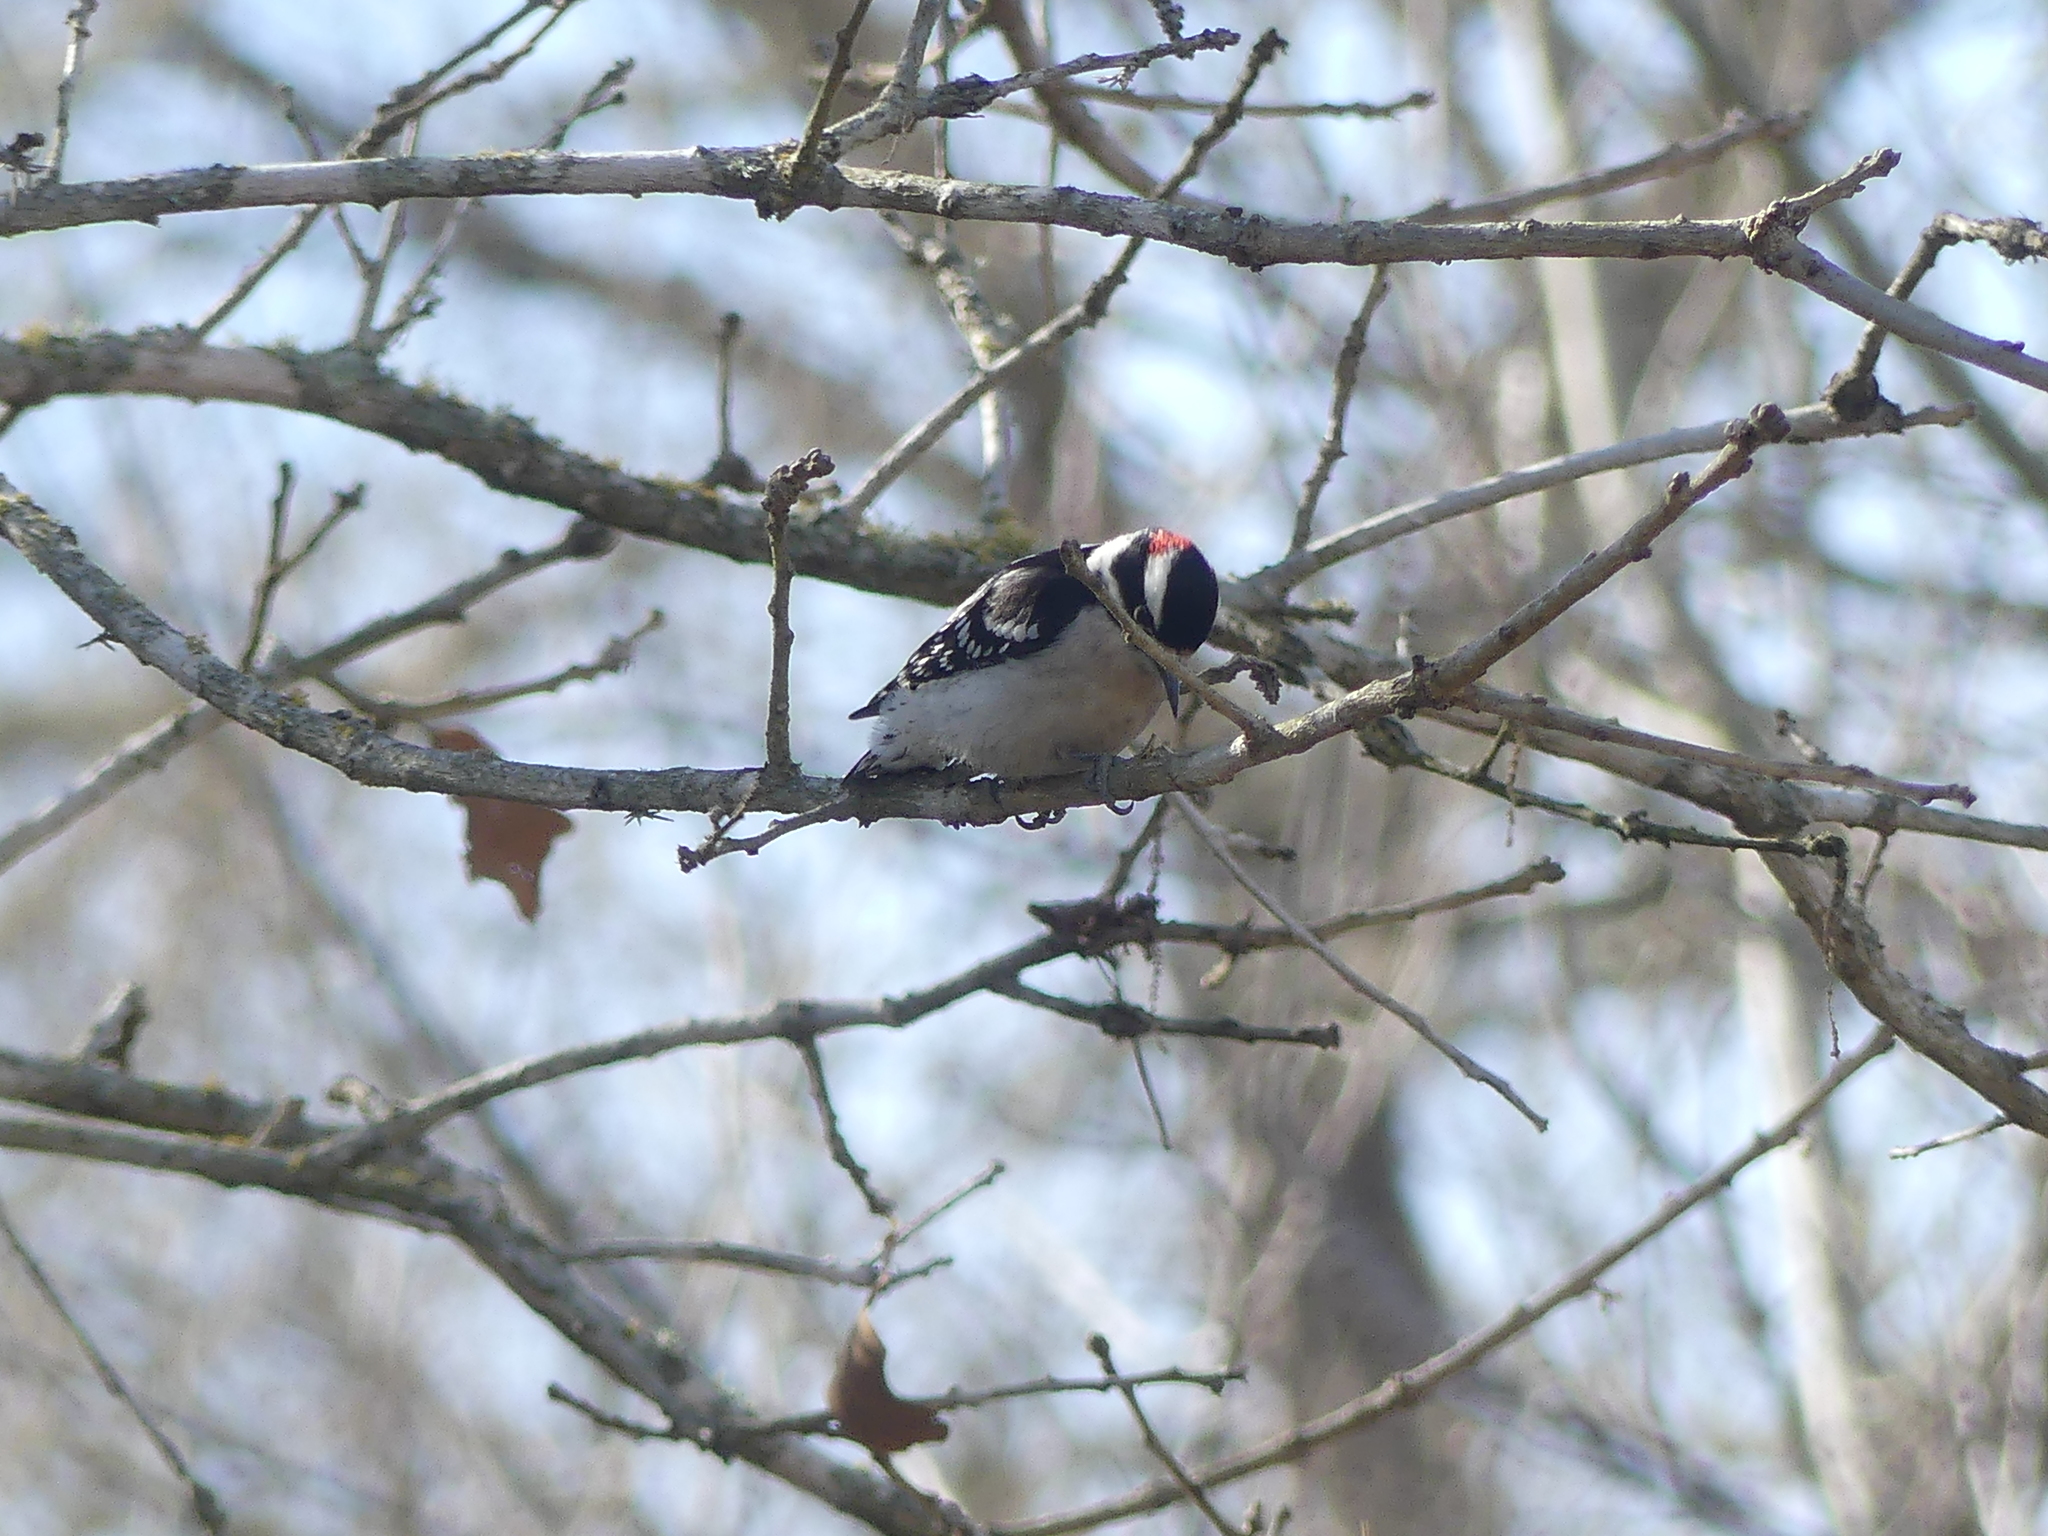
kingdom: Animalia
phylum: Chordata
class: Aves
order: Piciformes
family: Picidae
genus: Dryobates
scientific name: Dryobates pubescens
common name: Downy woodpecker
